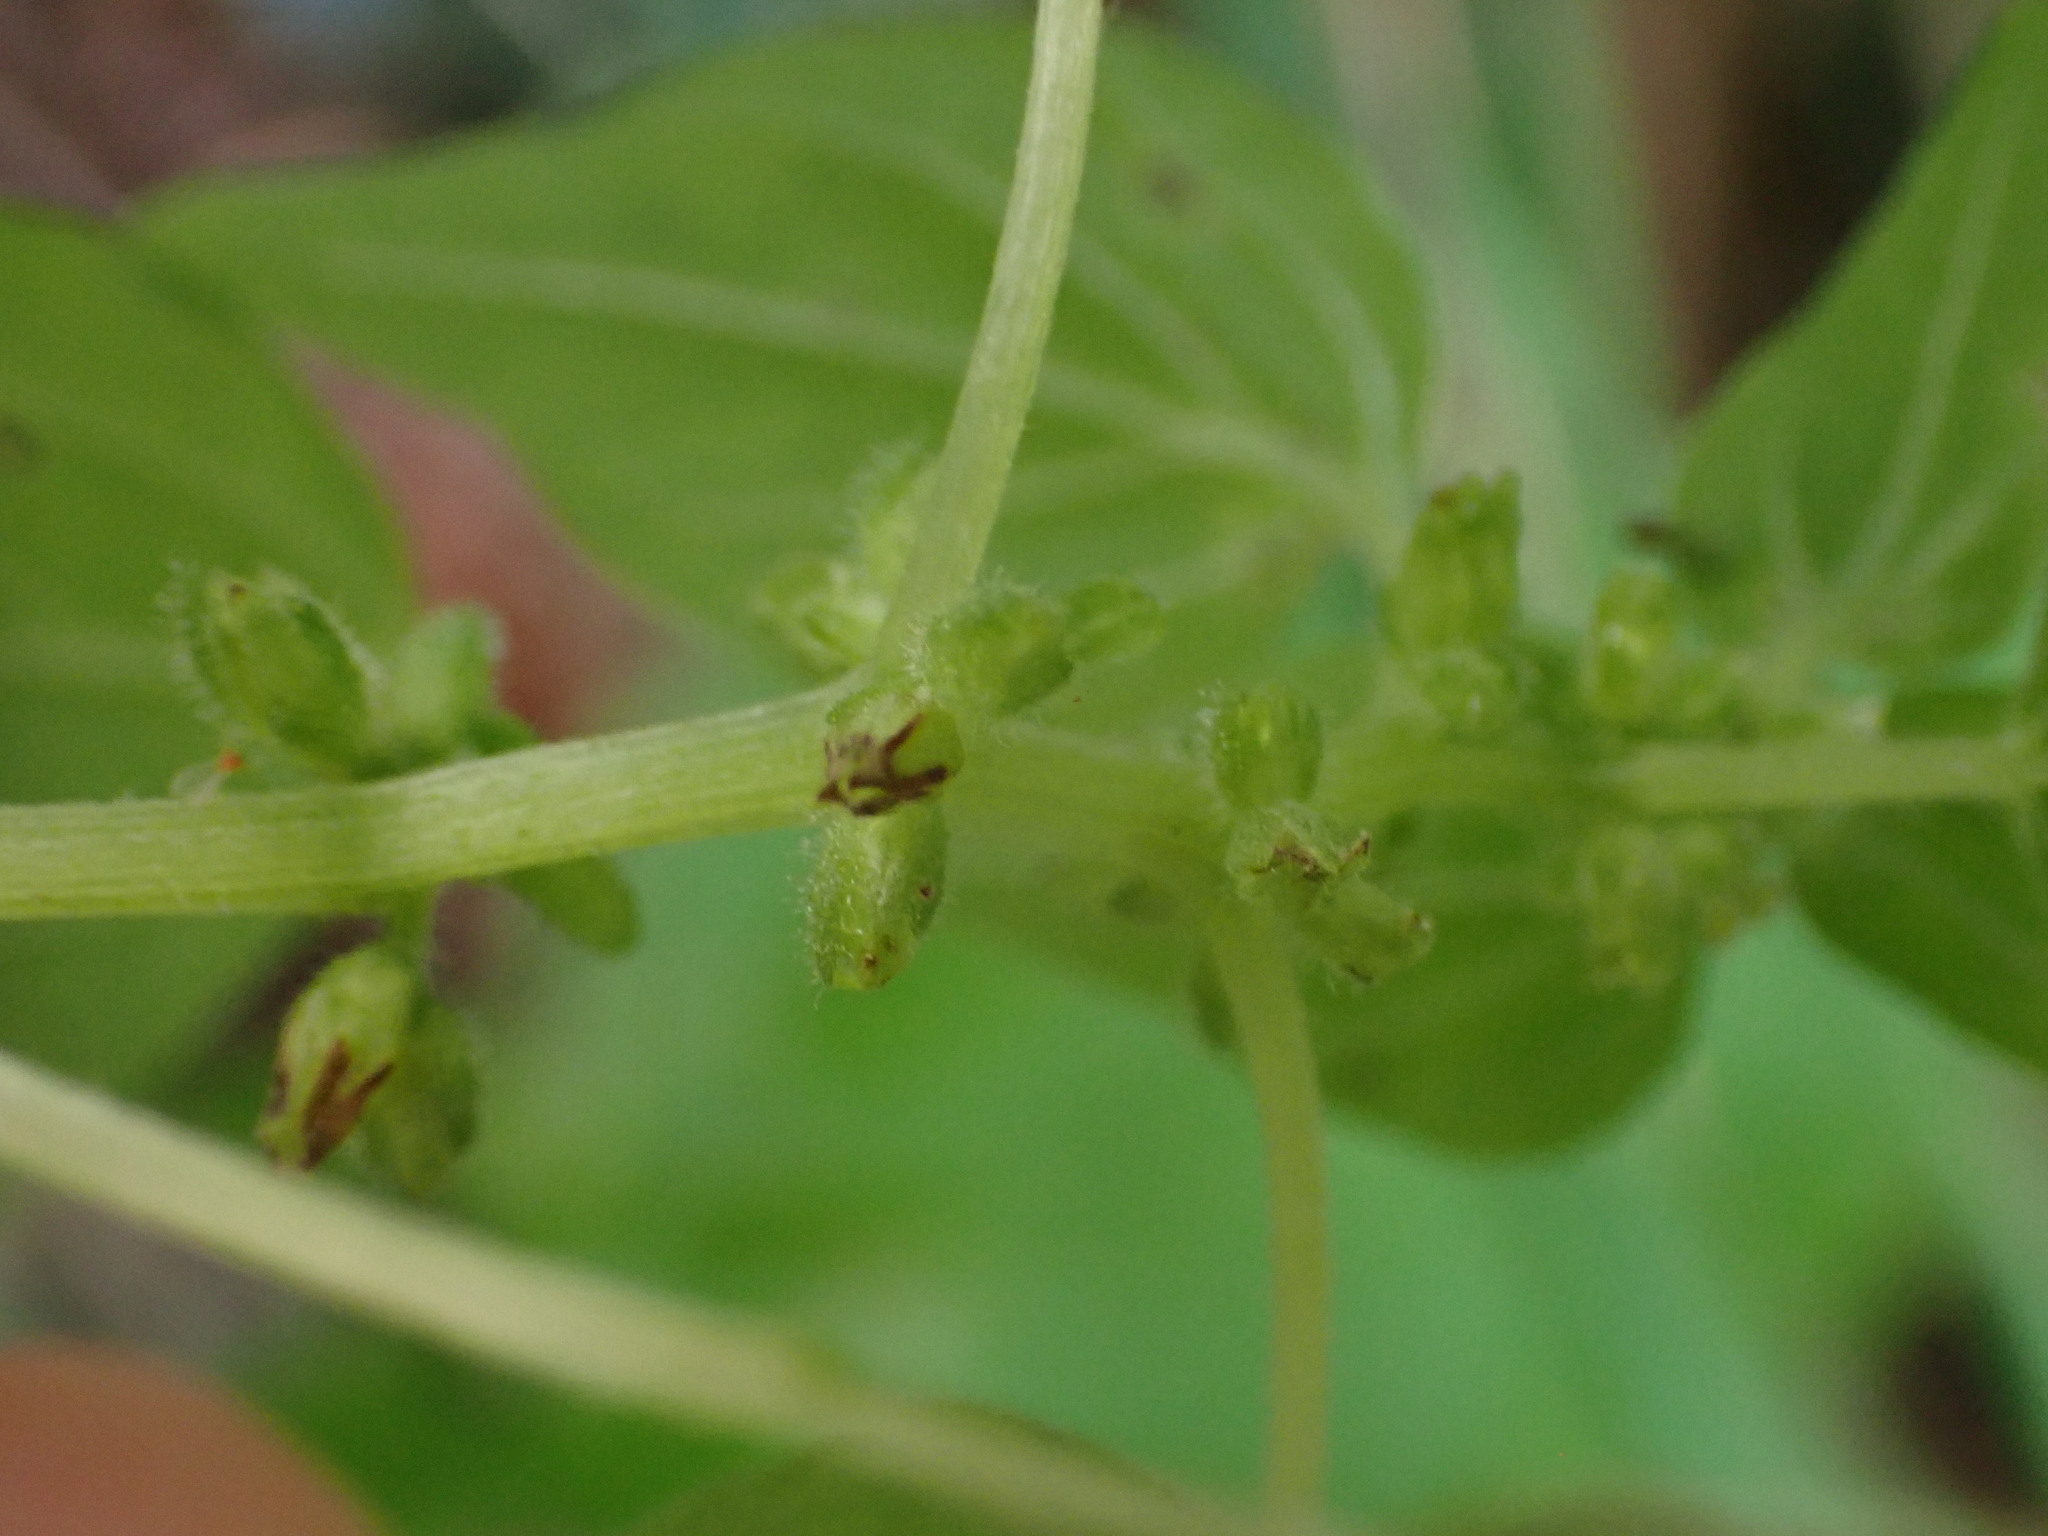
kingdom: Plantae
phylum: Tracheophyta
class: Magnoliopsida
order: Rosales
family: Urticaceae
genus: Parietaria
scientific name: Parietaria debilis
